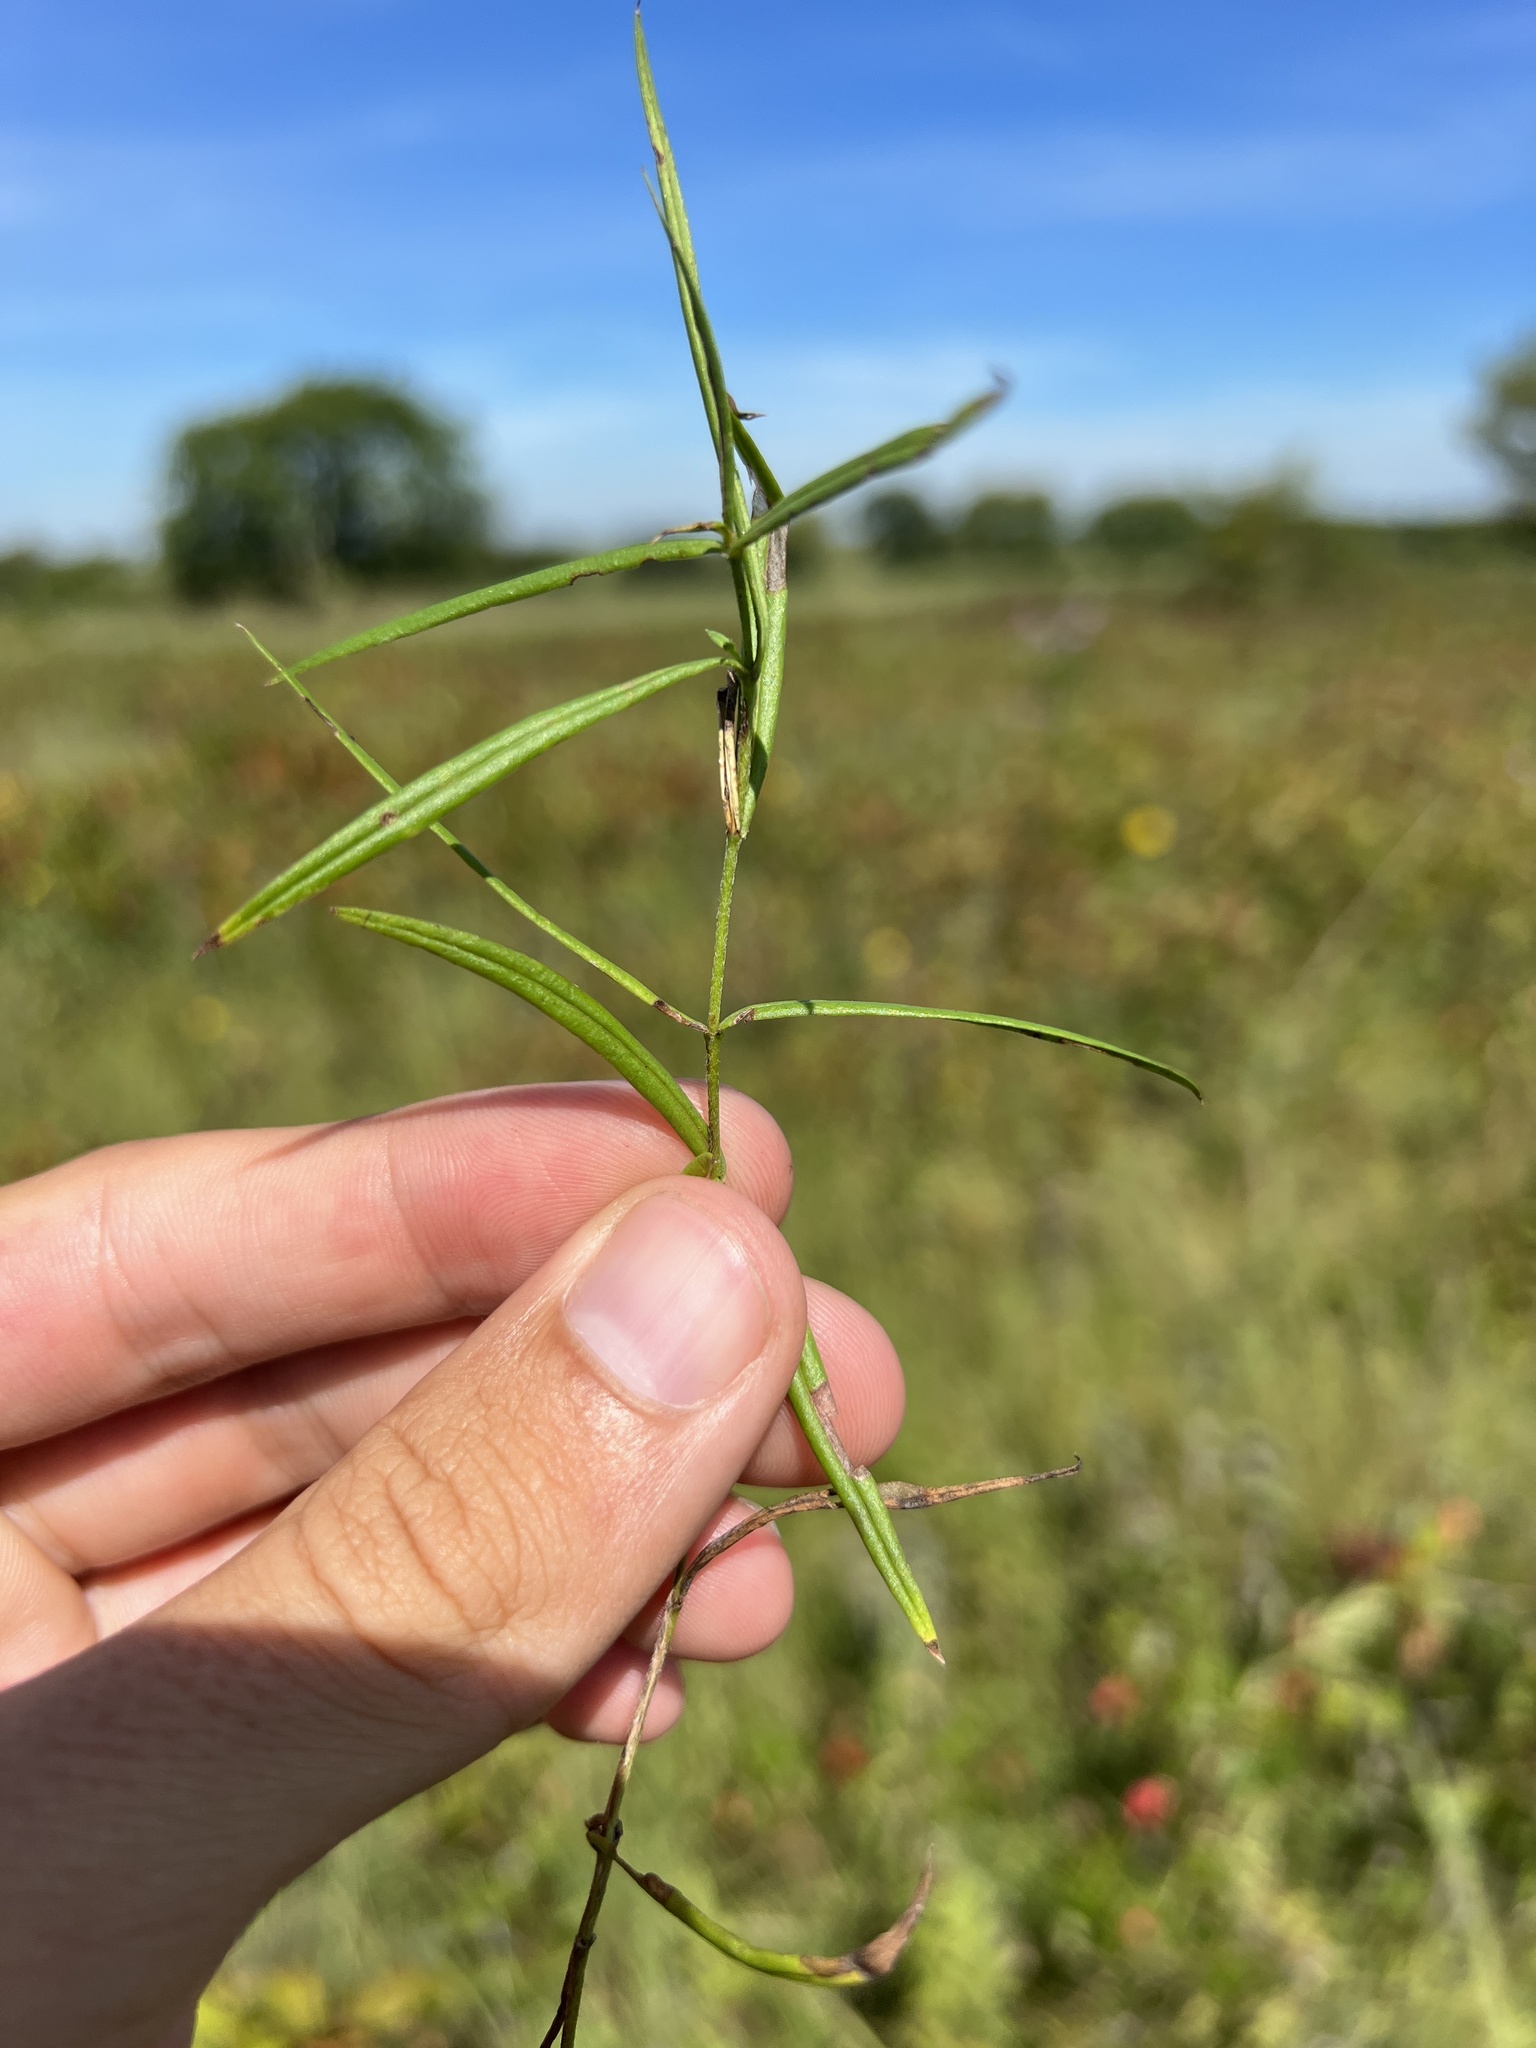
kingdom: Plantae
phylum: Tracheophyta
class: Magnoliopsida
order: Ericales
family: Polemoniaceae
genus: Phlox
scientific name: Phlox pilosa
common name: Prairie phlox
